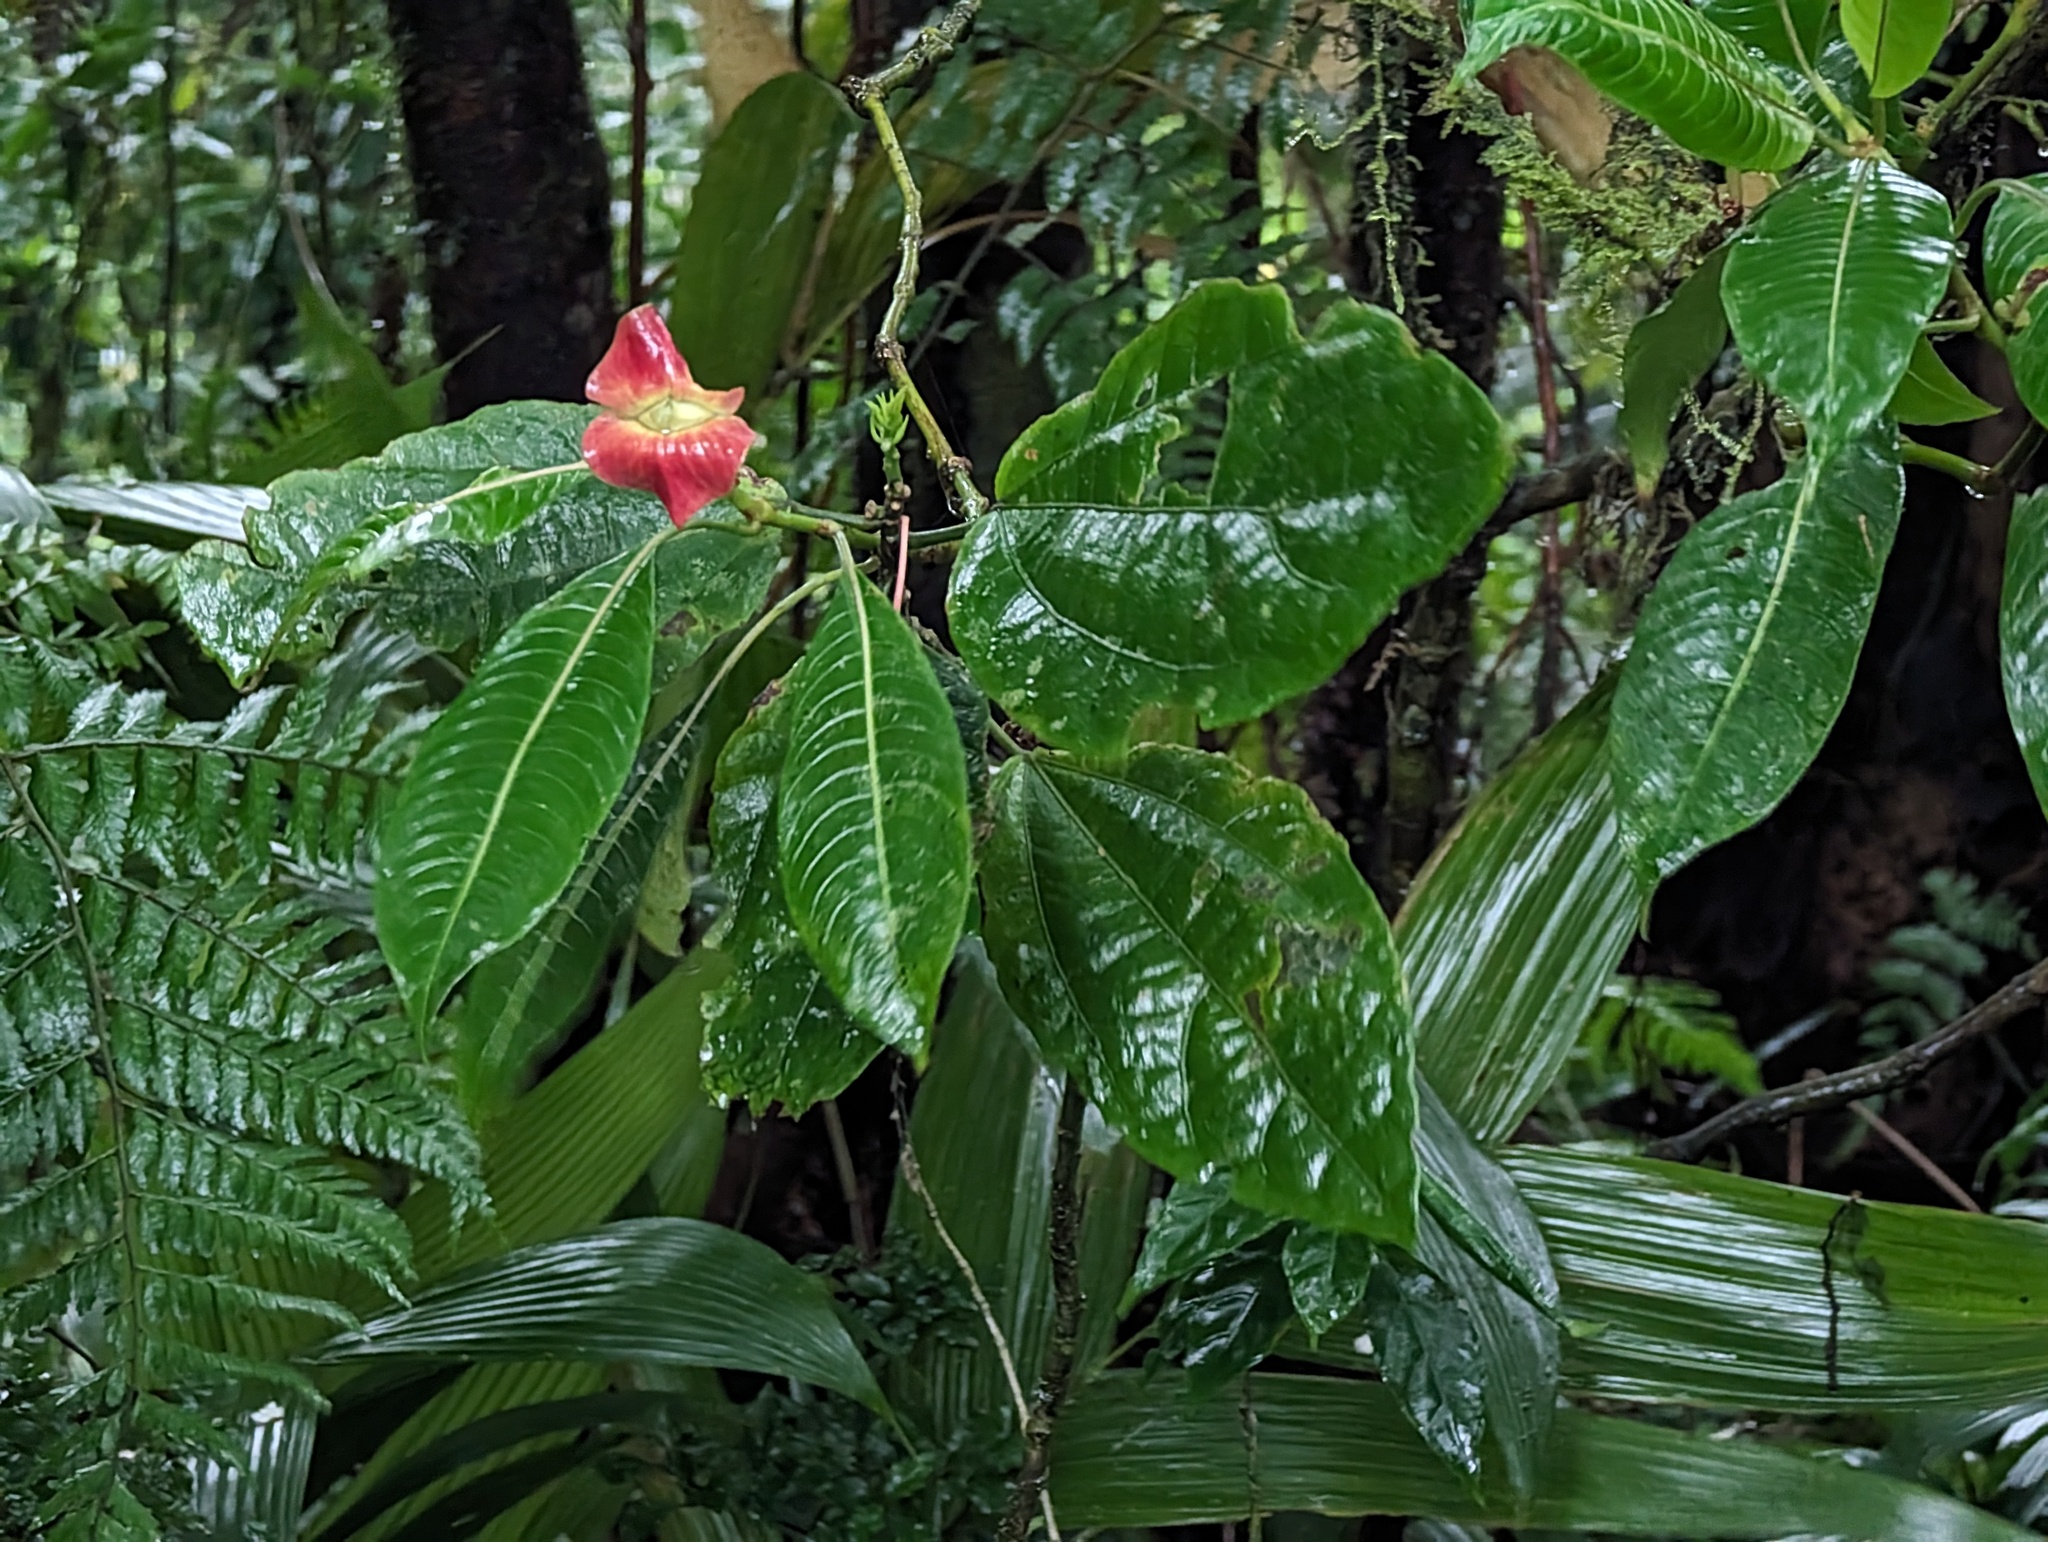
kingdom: Plantae
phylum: Tracheophyta
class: Magnoliopsida
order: Gentianales
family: Rubiaceae
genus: Palicourea
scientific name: Palicourea elata
